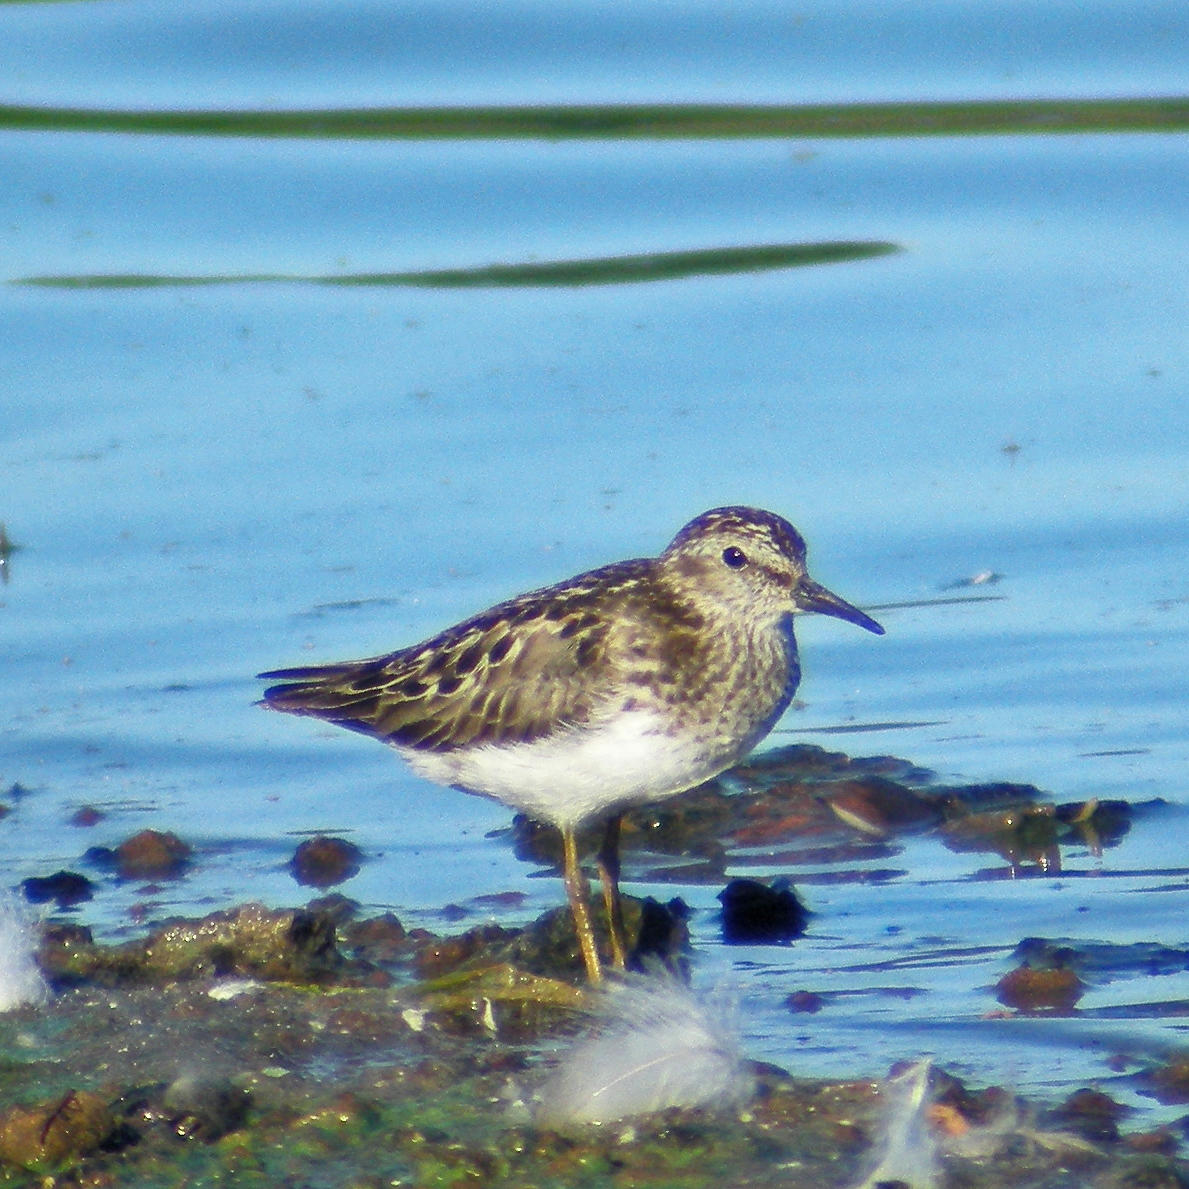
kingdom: Animalia
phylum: Chordata
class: Aves
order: Charadriiformes
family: Scolopacidae
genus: Calidris
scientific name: Calidris minutilla
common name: Least sandpiper
